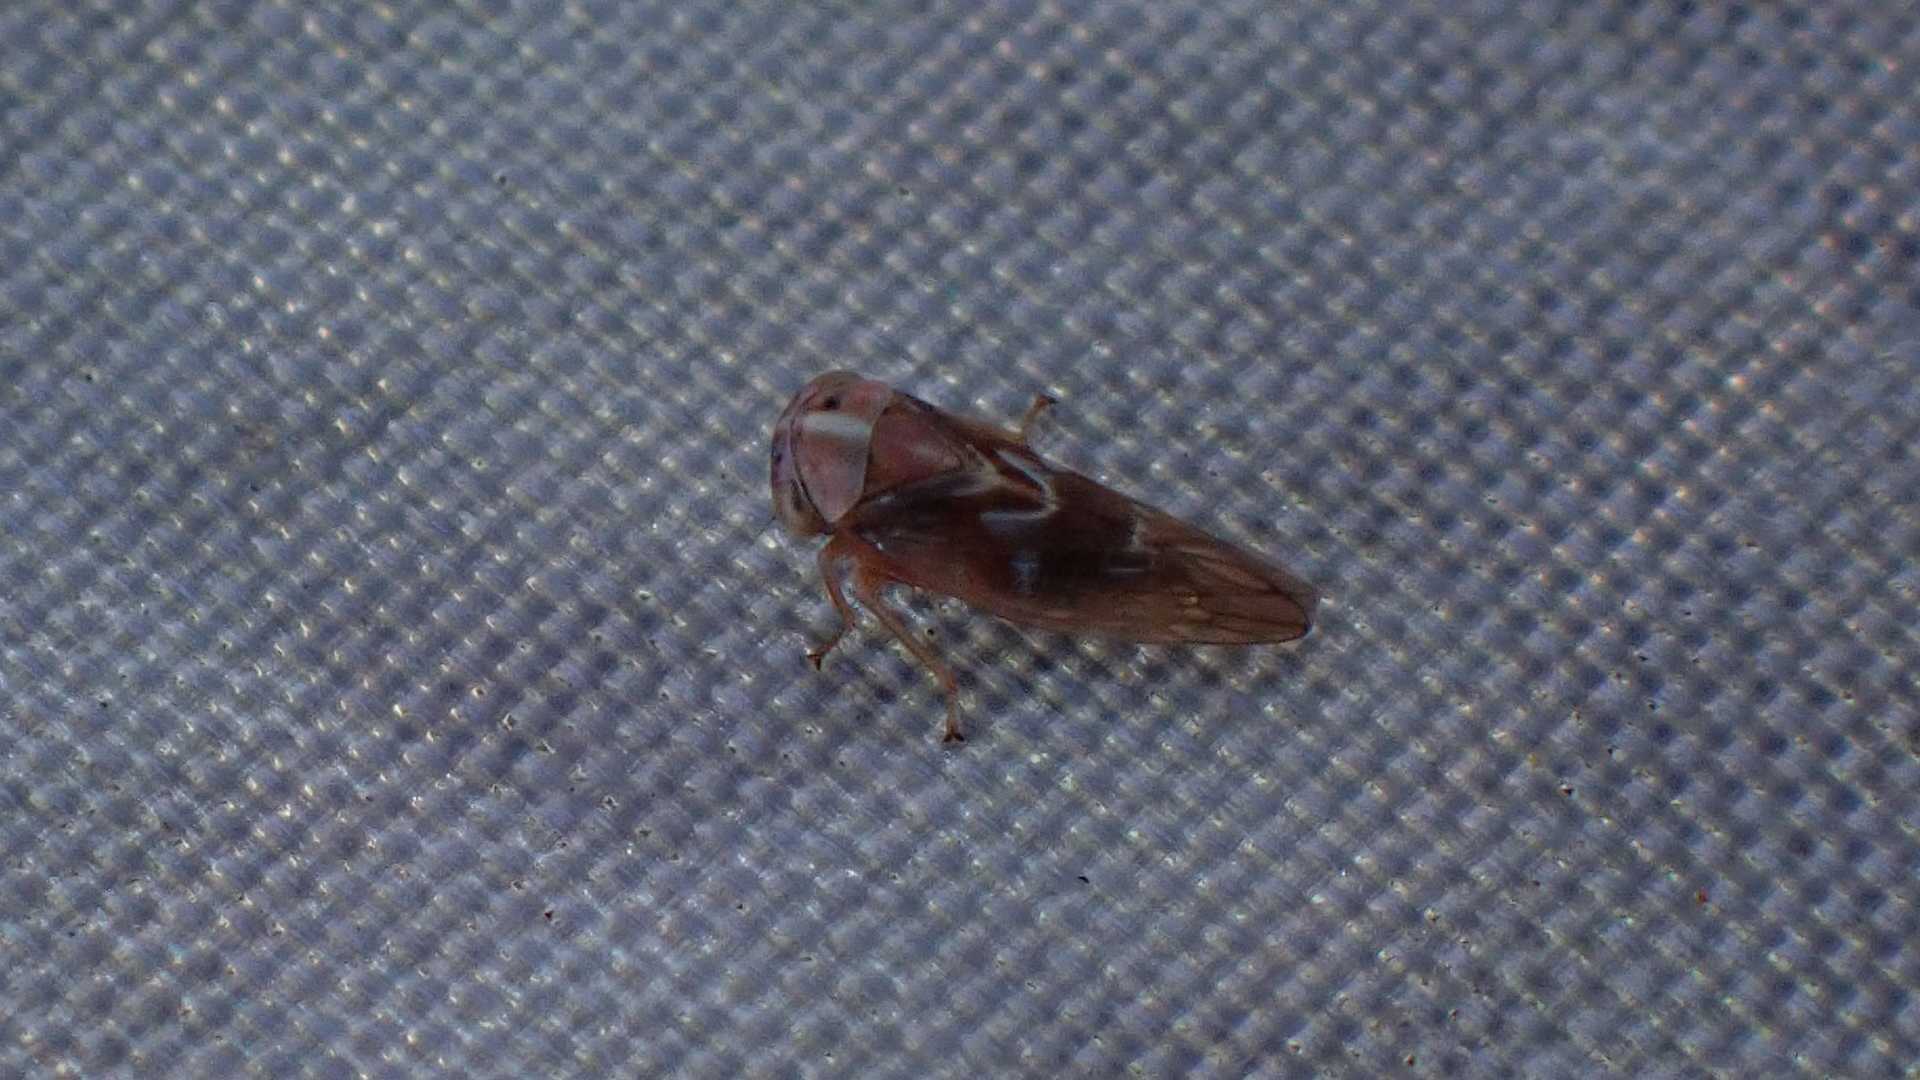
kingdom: Animalia
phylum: Arthropoda
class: Insecta
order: Hemiptera
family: Cicadellidae
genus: Tremulicerus
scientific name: Tremulicerus fulgidus
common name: Leafhopper
